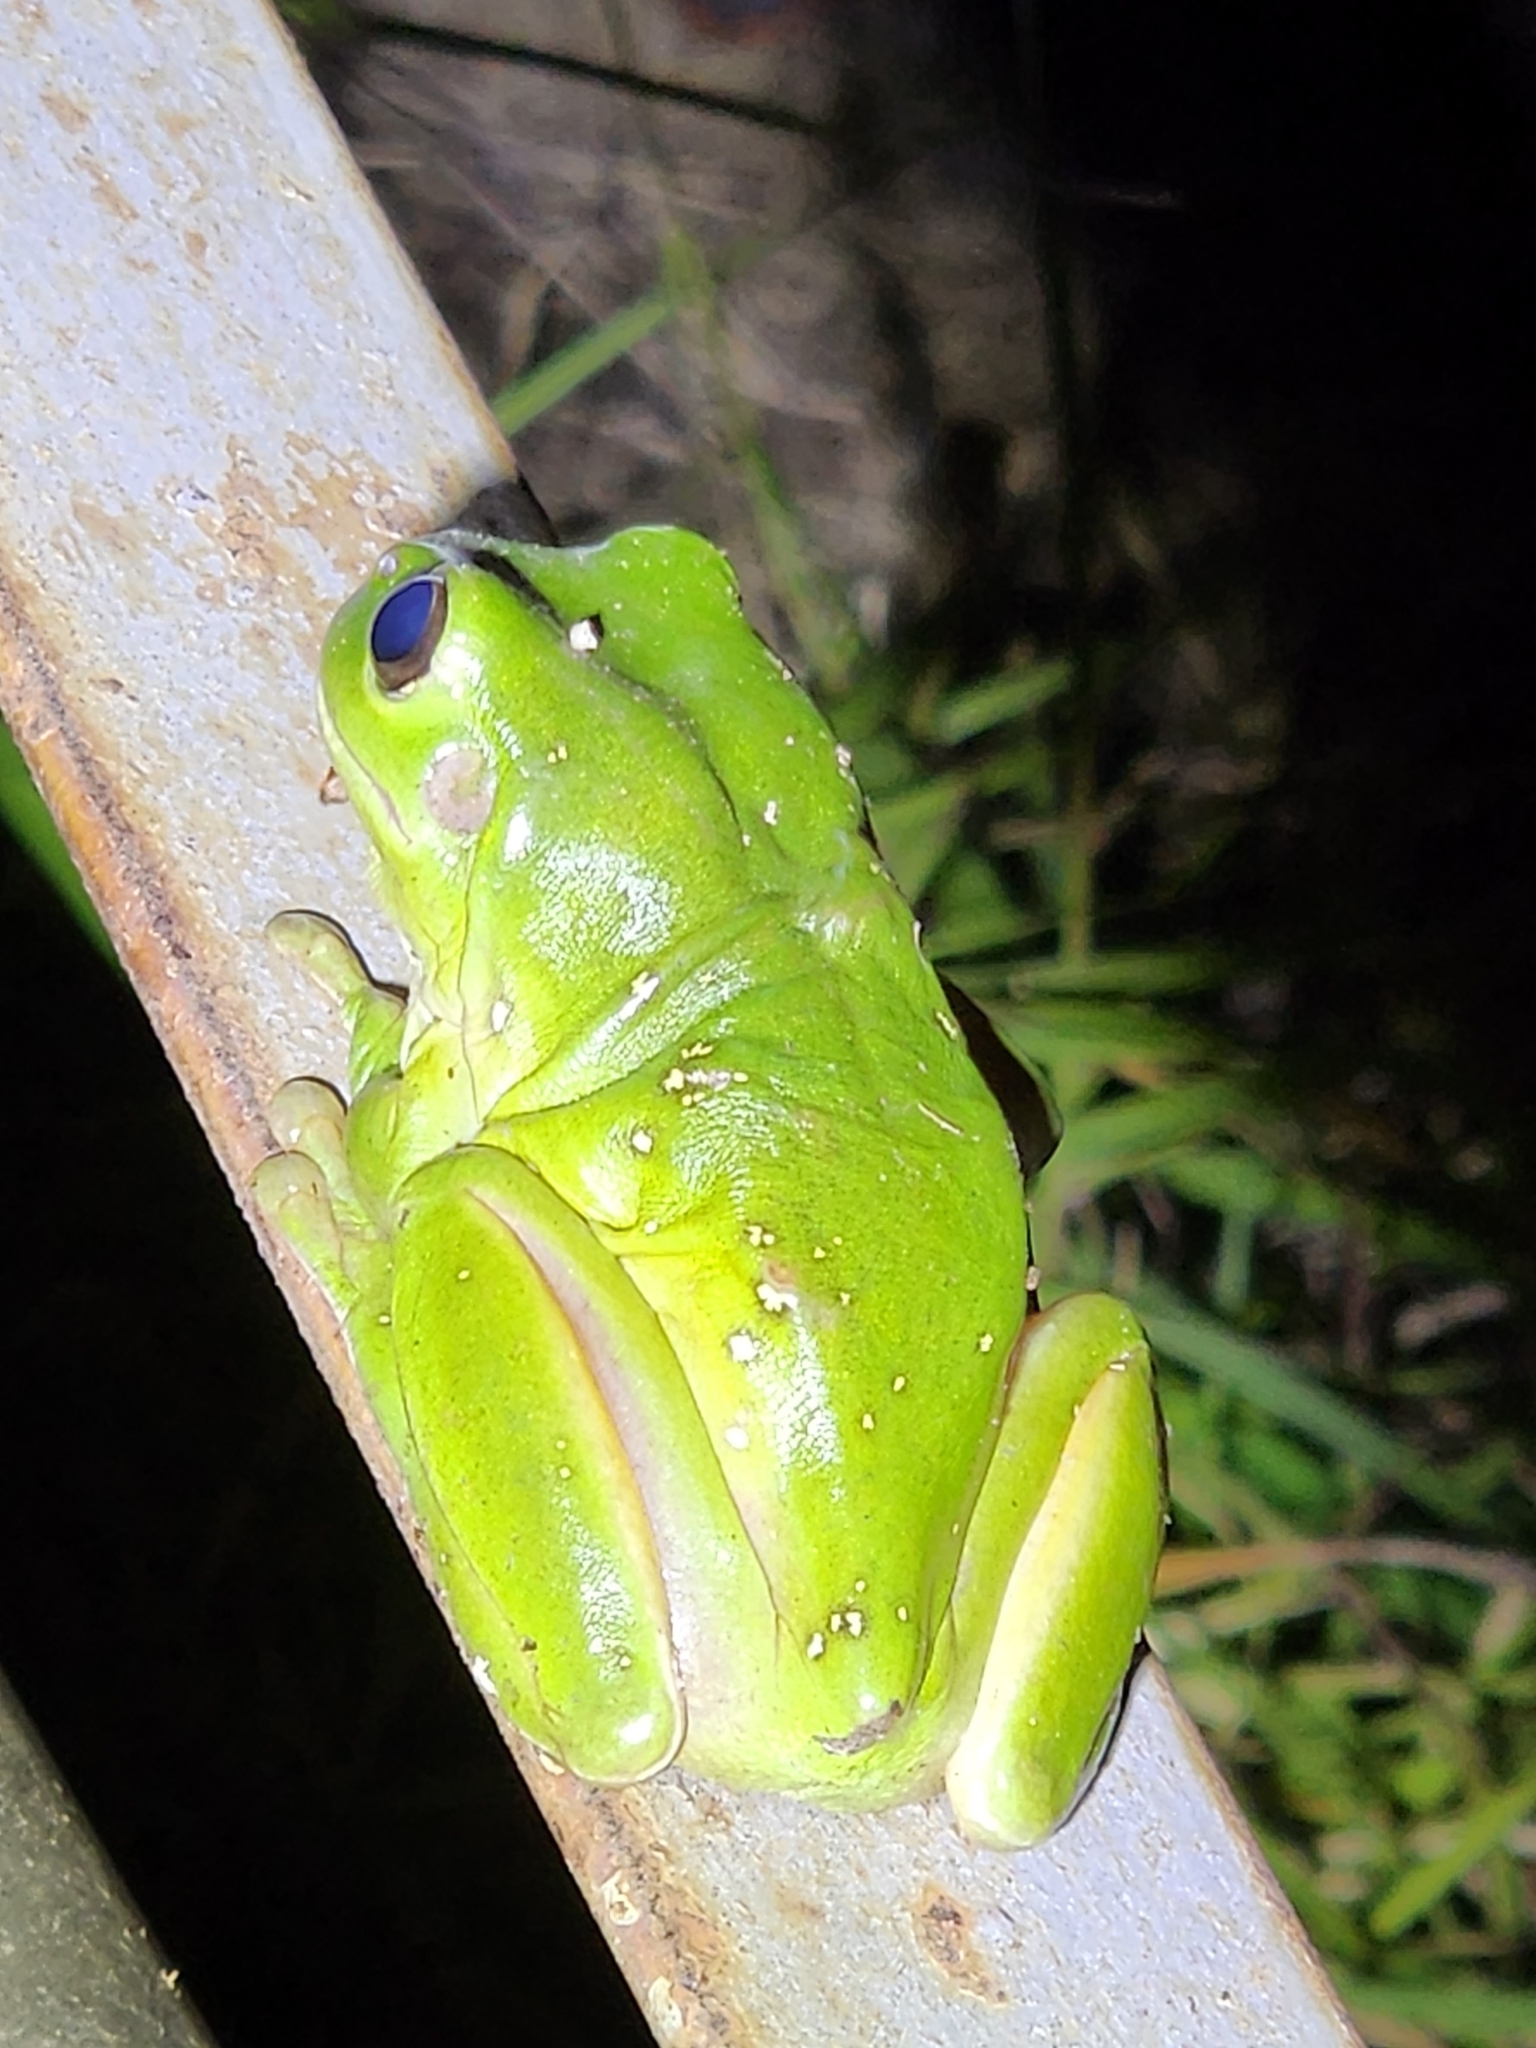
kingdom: Animalia
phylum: Chordata
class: Amphibia
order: Anura
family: Pelodryadidae
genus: Ranoidea
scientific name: Ranoidea caerulea
